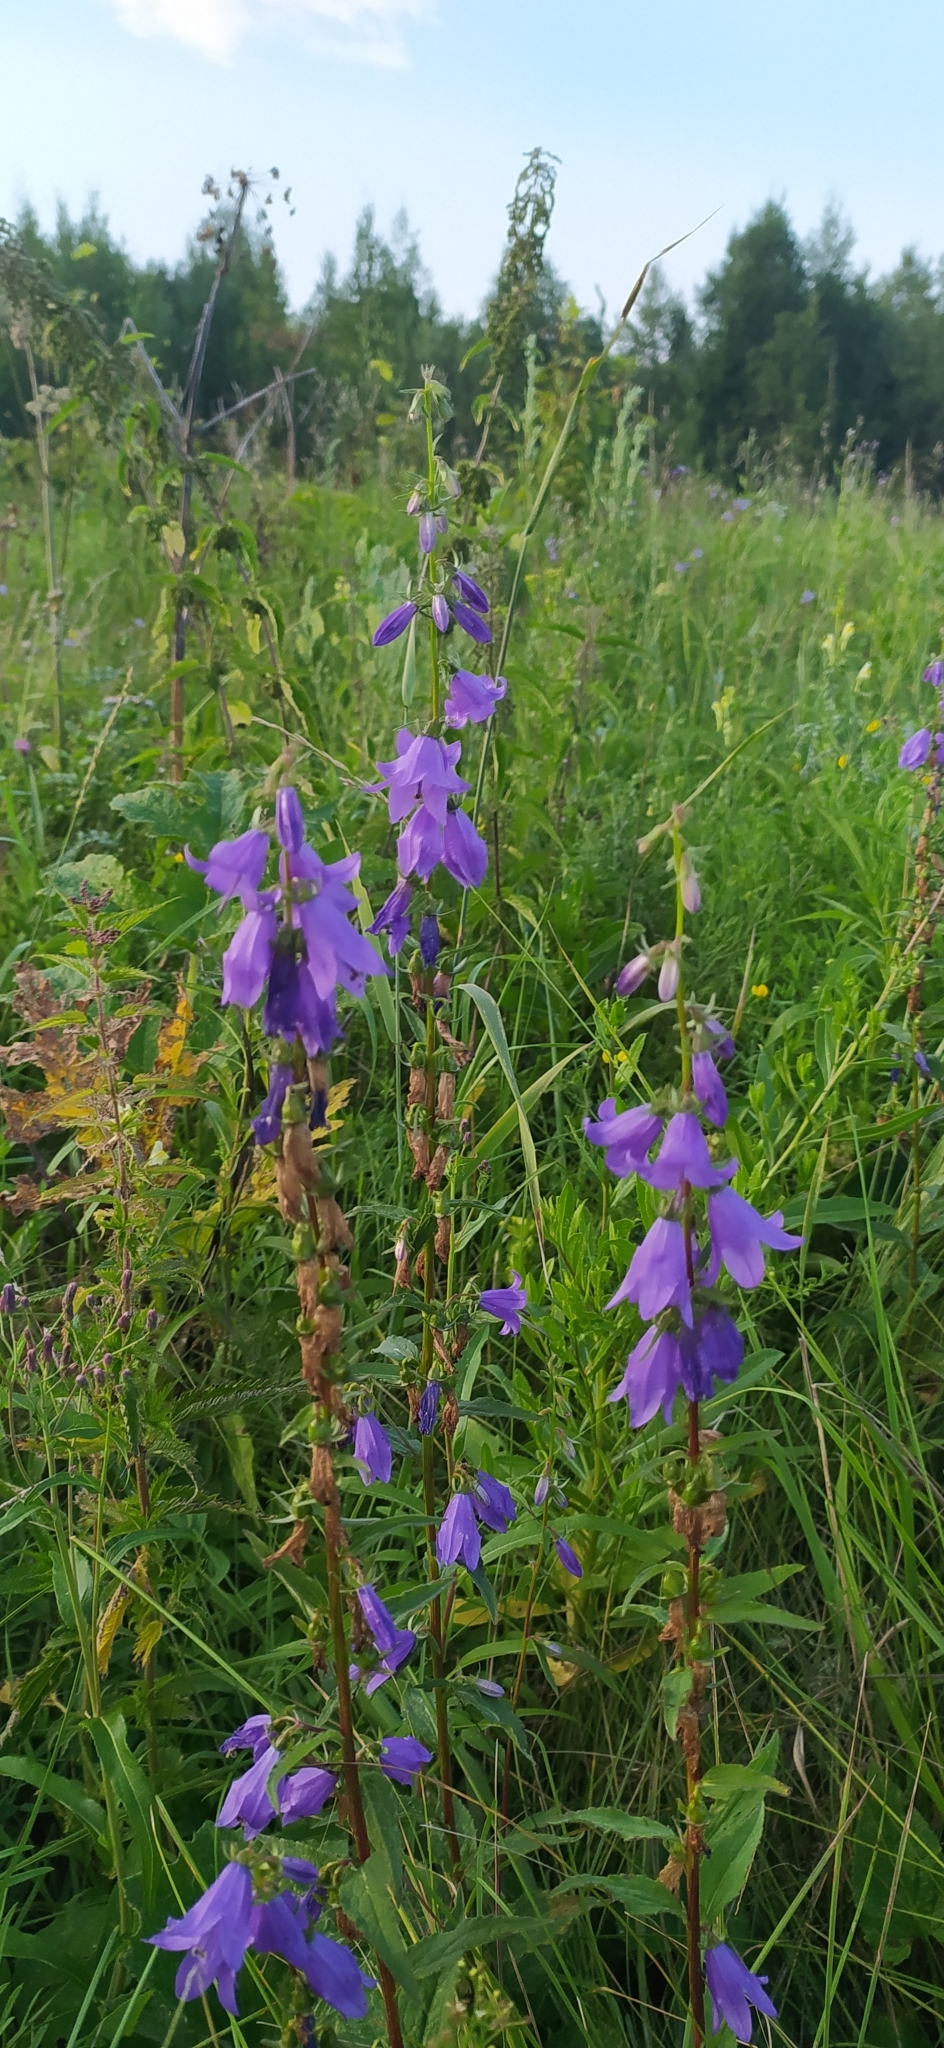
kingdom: Plantae
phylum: Tracheophyta
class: Magnoliopsida
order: Asterales
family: Campanulaceae
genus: Campanula
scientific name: Campanula rapunculoides
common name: Creeping bellflower
